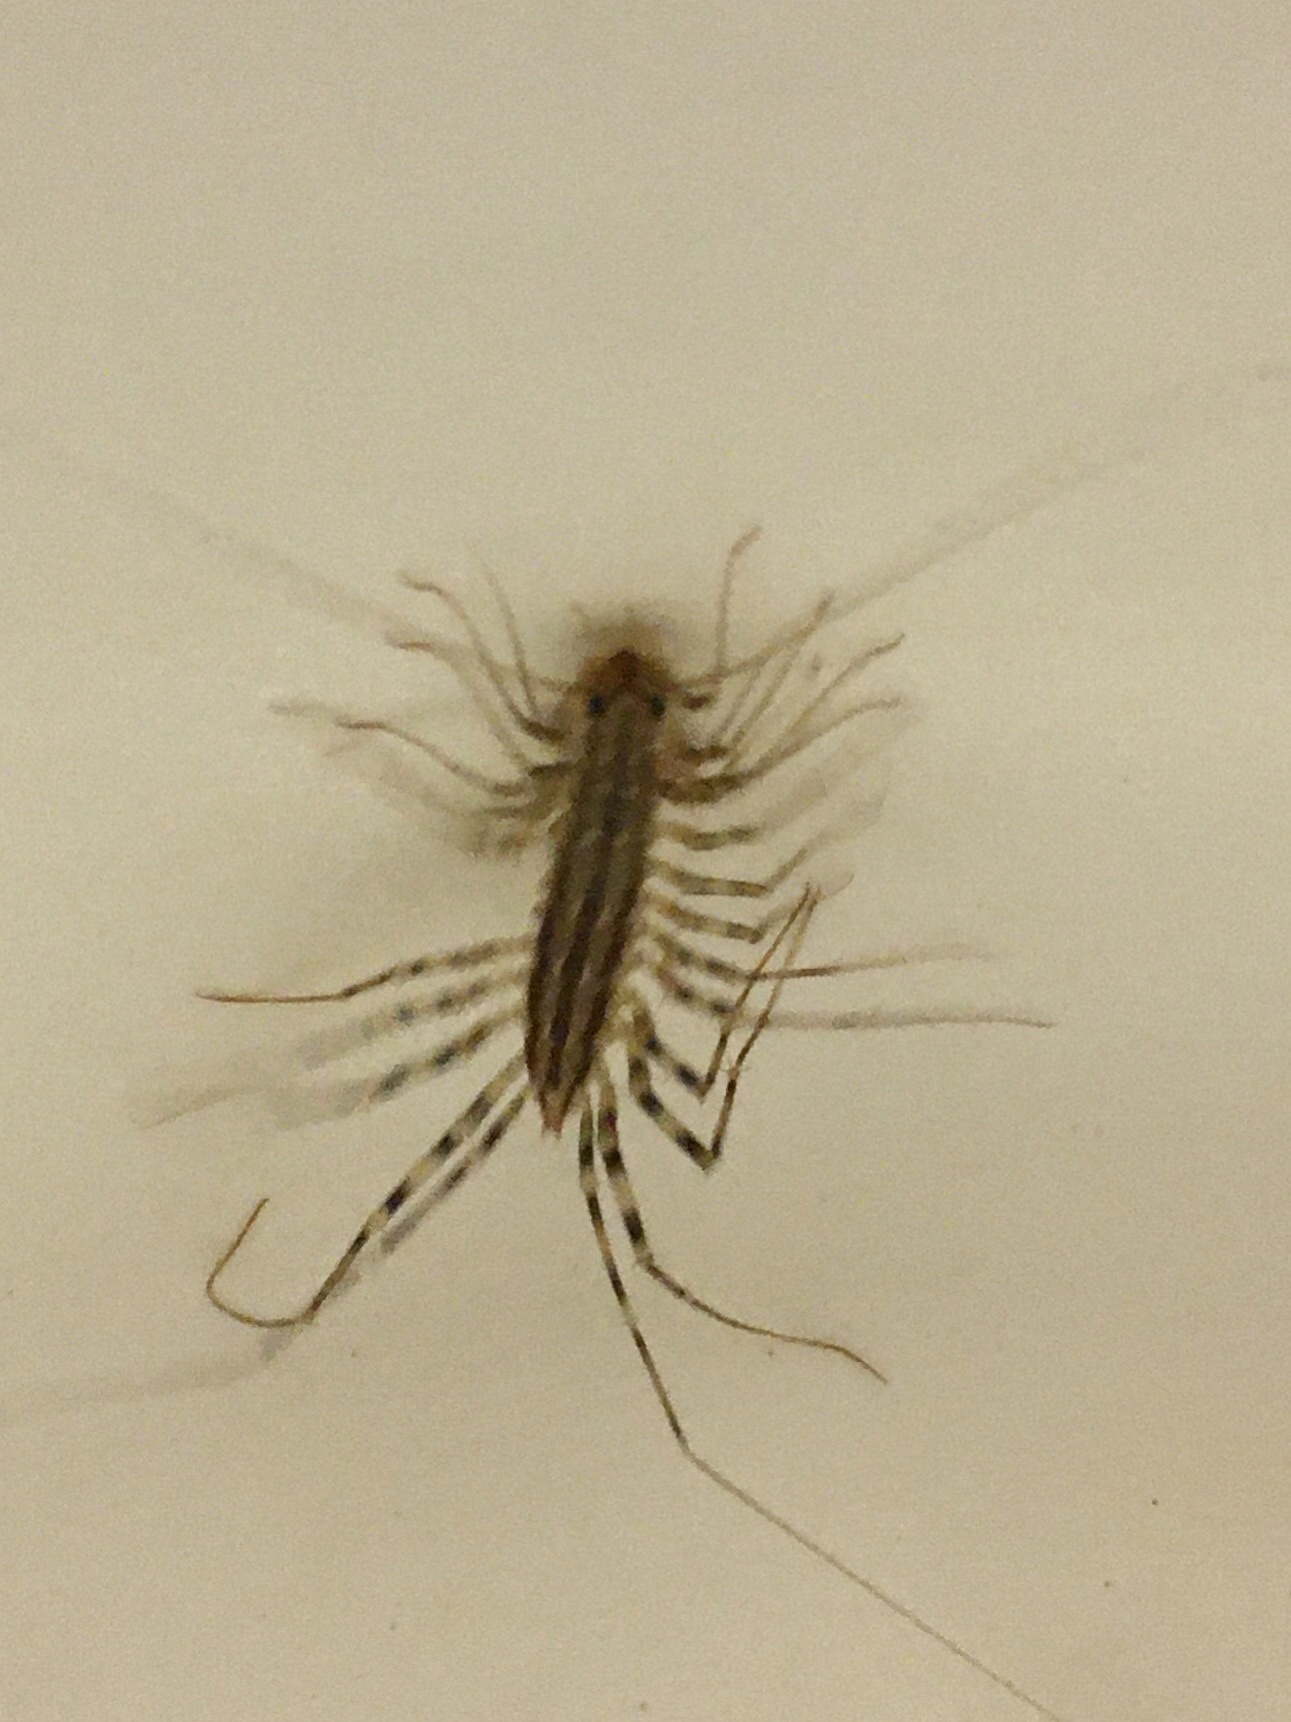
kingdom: Animalia
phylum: Arthropoda
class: Chilopoda
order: Scutigeromorpha
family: Scutigeridae
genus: Scutigera
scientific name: Scutigera coleoptrata
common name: House centipede
